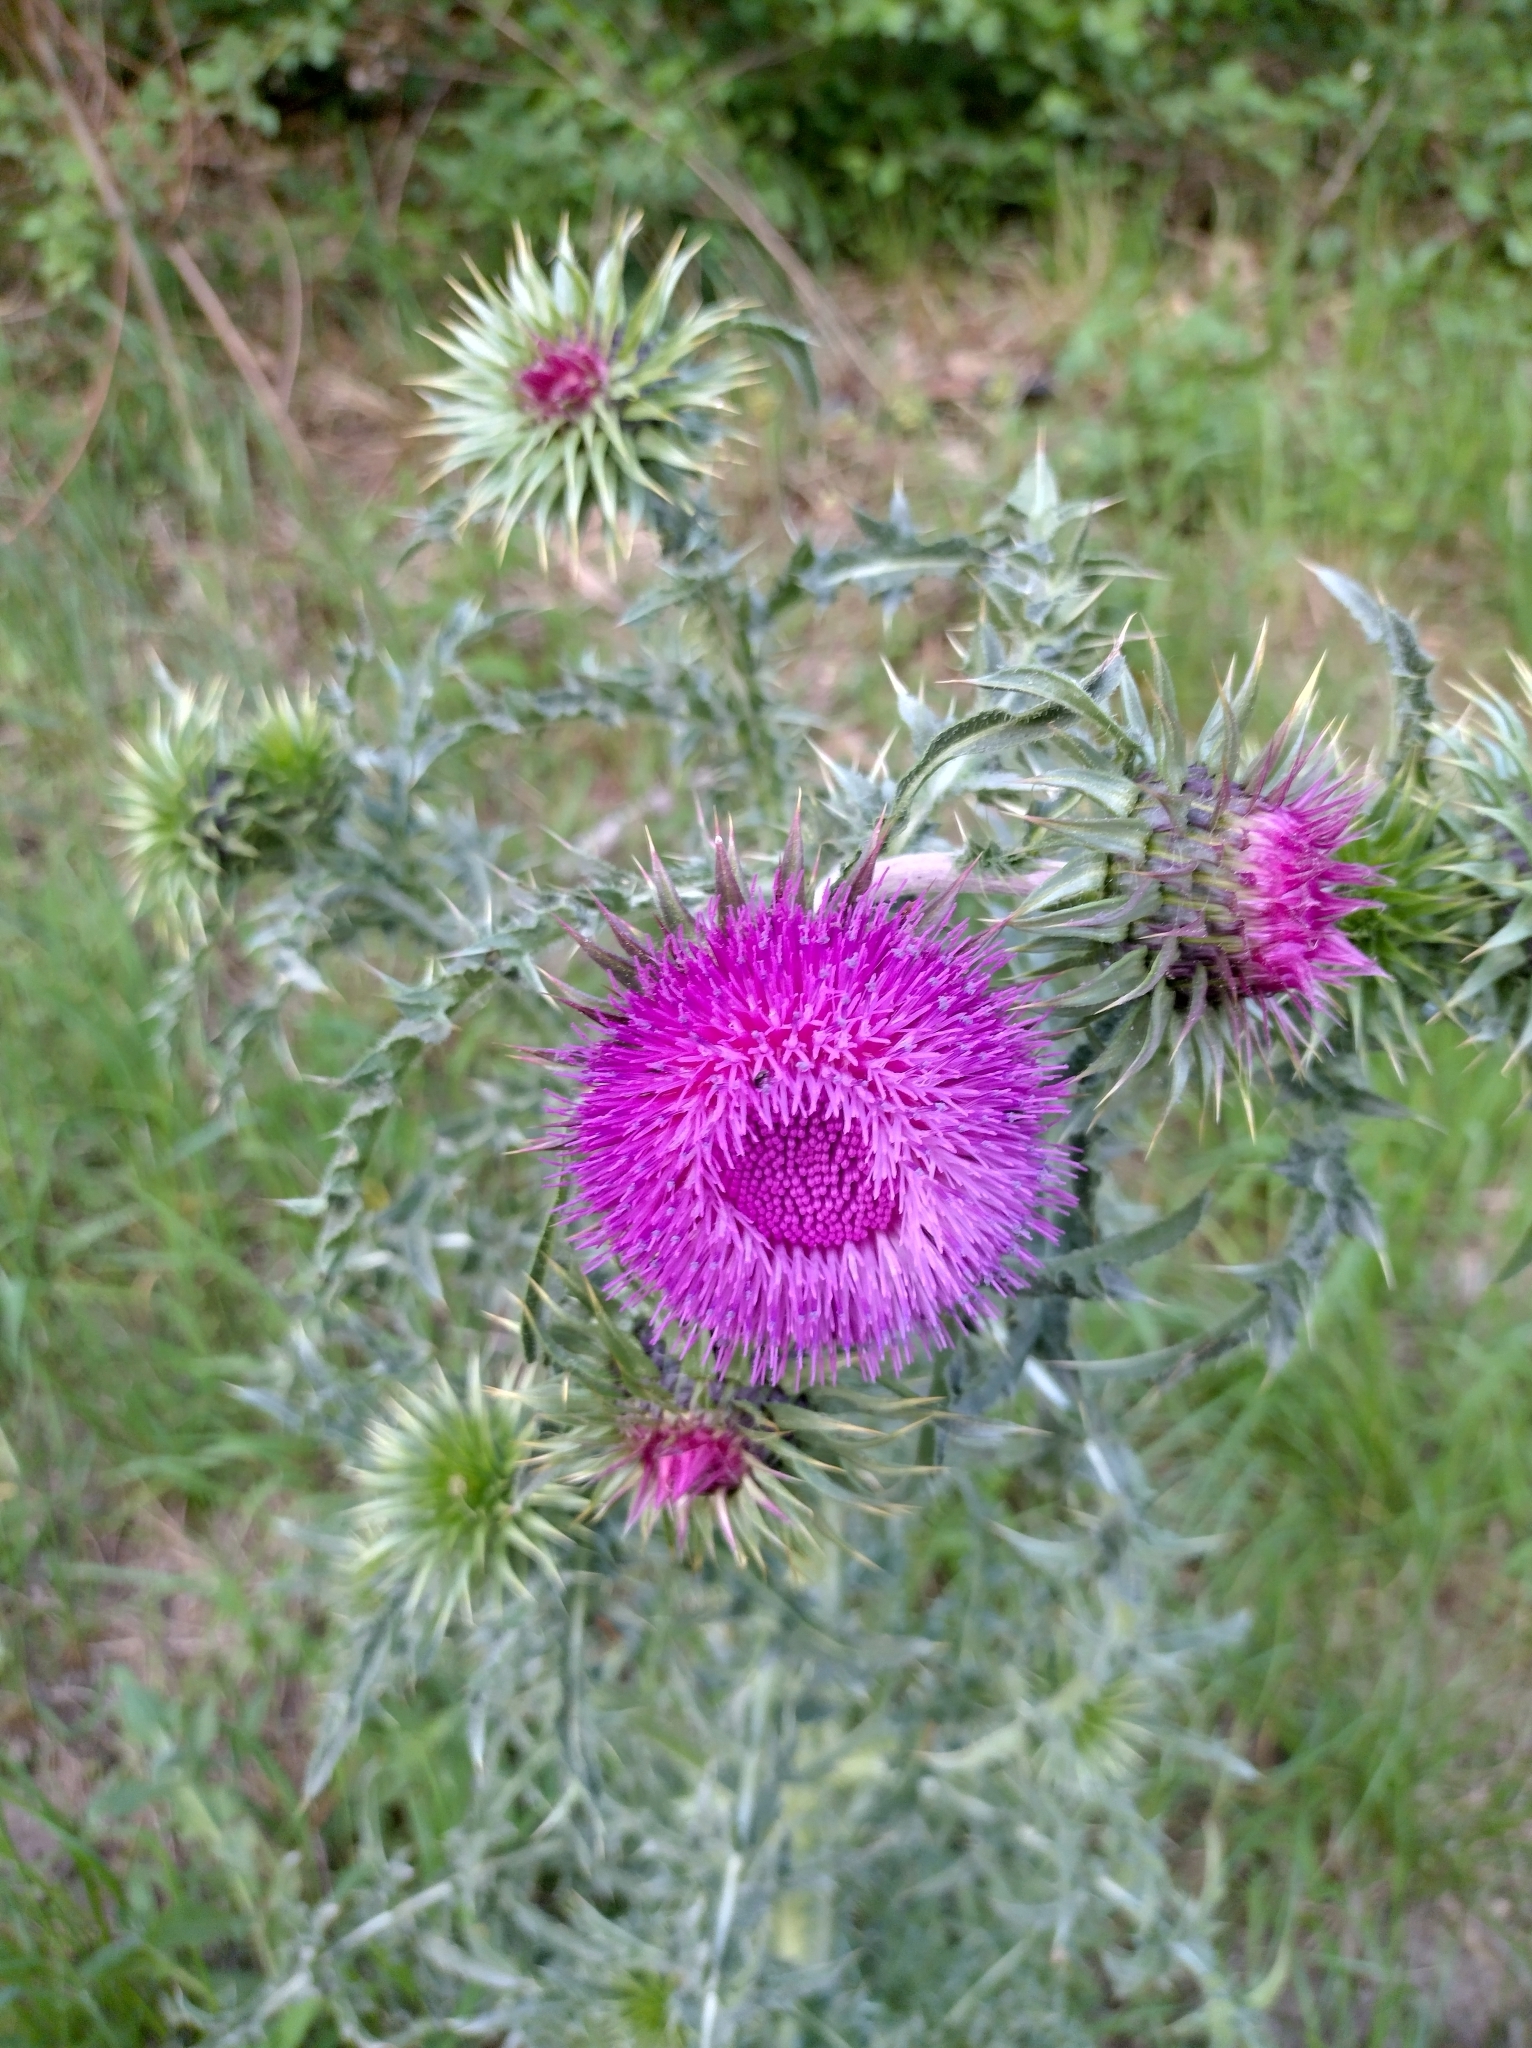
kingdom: Plantae
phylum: Tracheophyta
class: Magnoliopsida
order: Asterales
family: Asteraceae
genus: Carduus
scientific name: Carduus nutans
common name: Musk thistle
